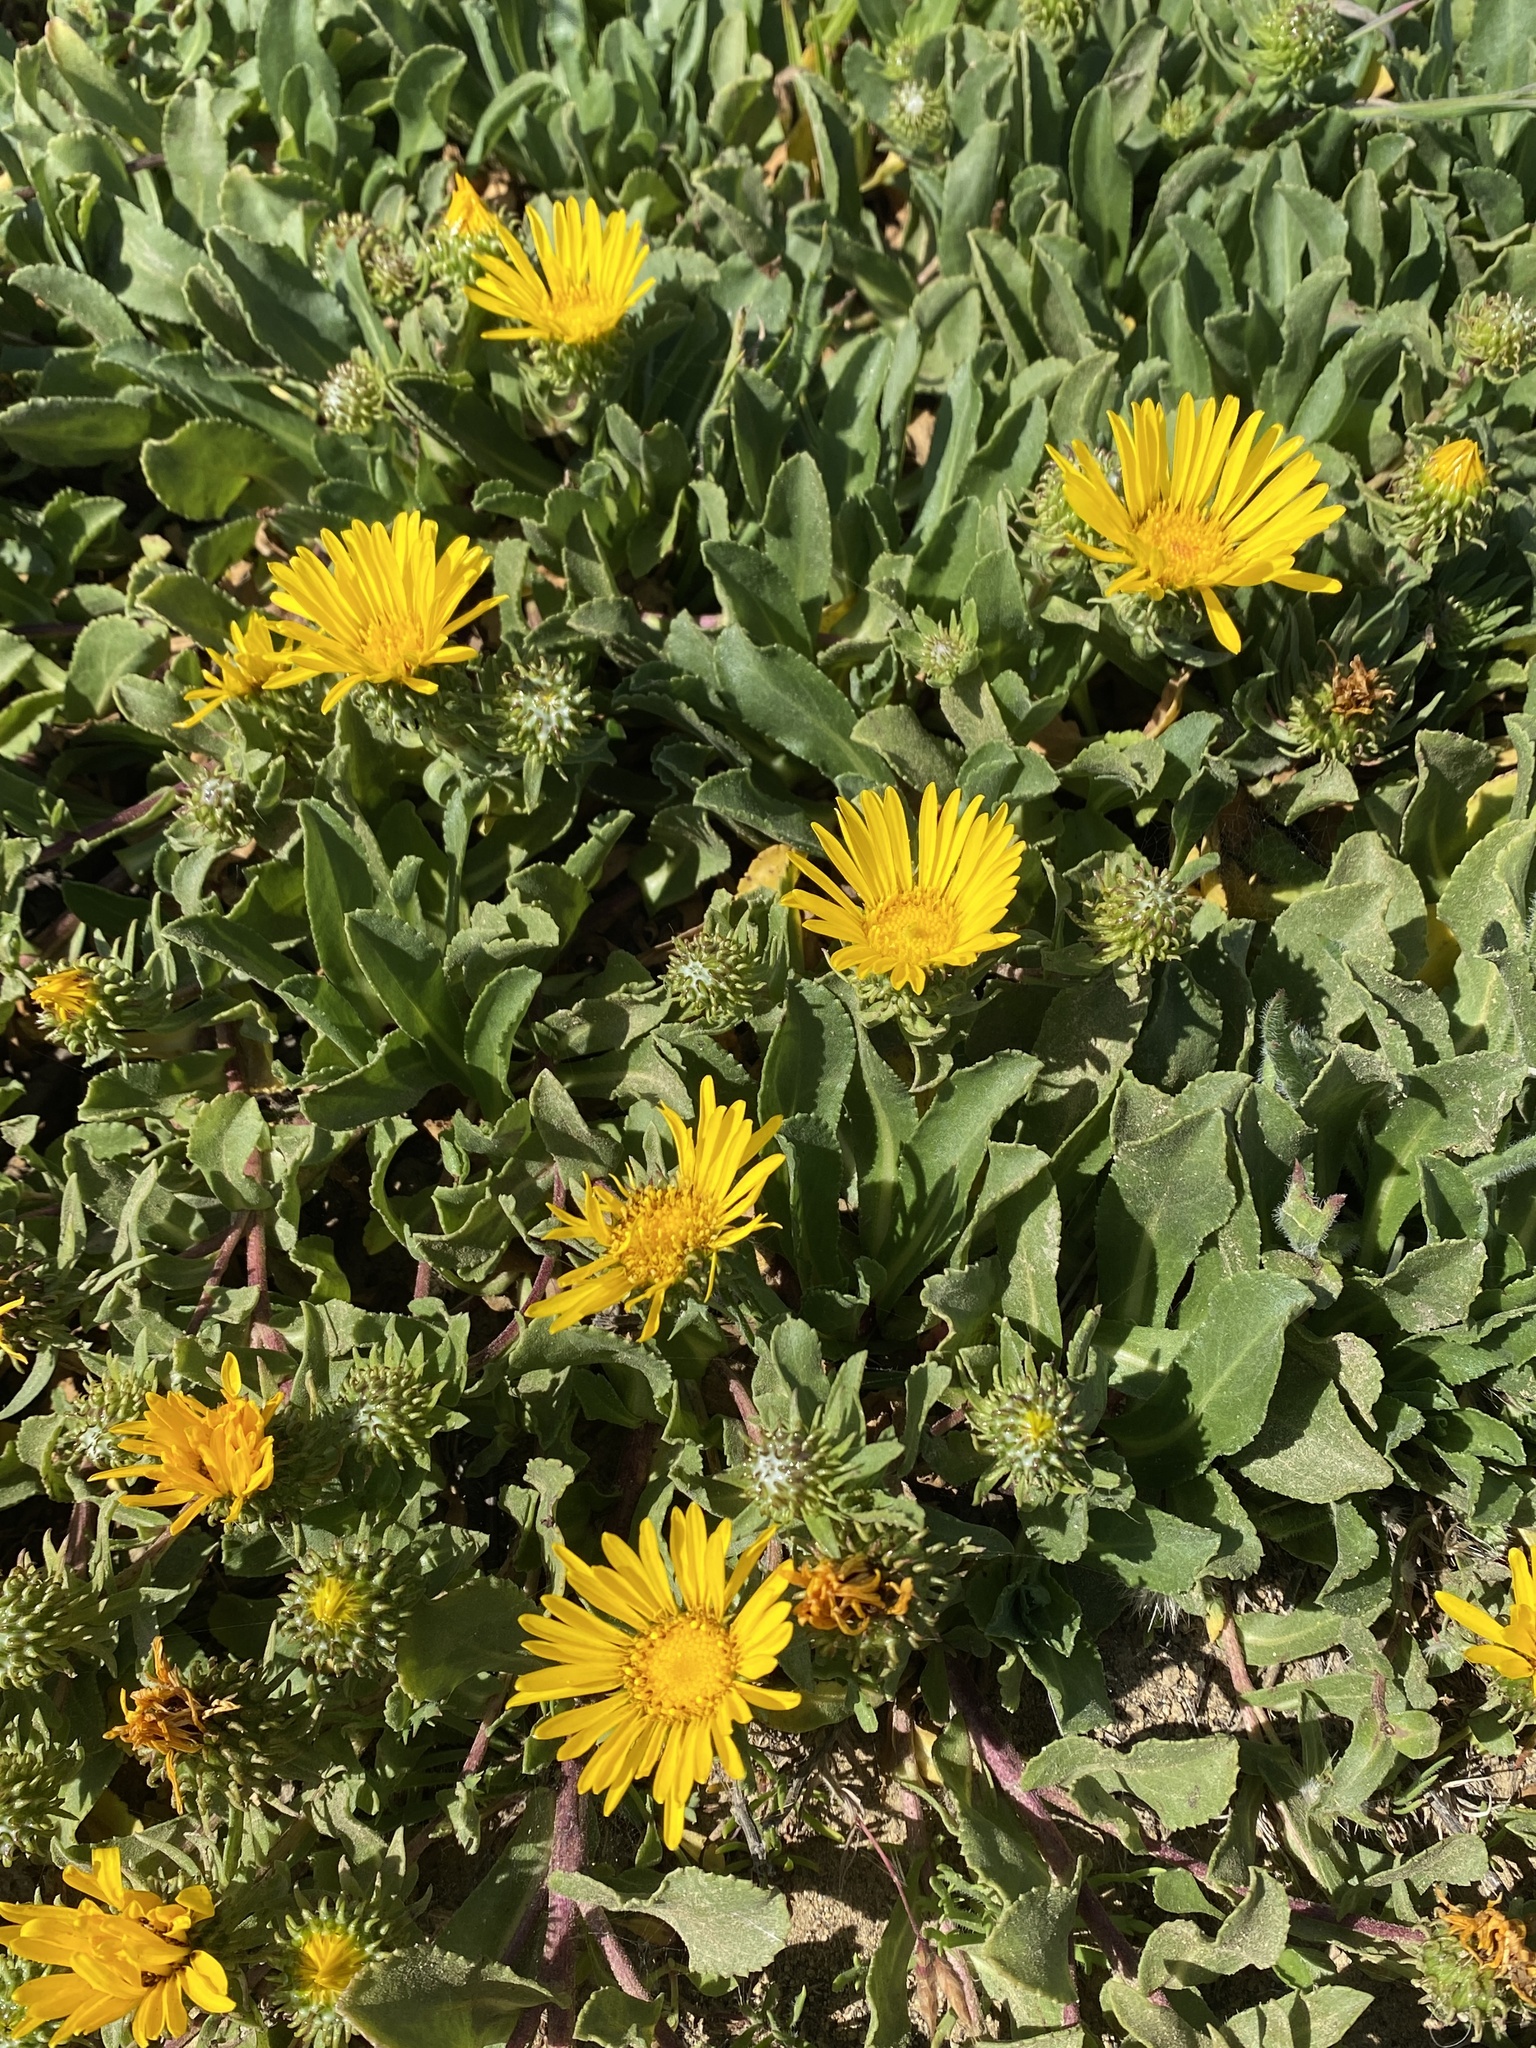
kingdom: Plantae
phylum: Tracheophyta
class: Magnoliopsida
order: Asterales
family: Asteraceae
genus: Grindelia
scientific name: Grindelia hirsutula
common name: Hairy gumweed
